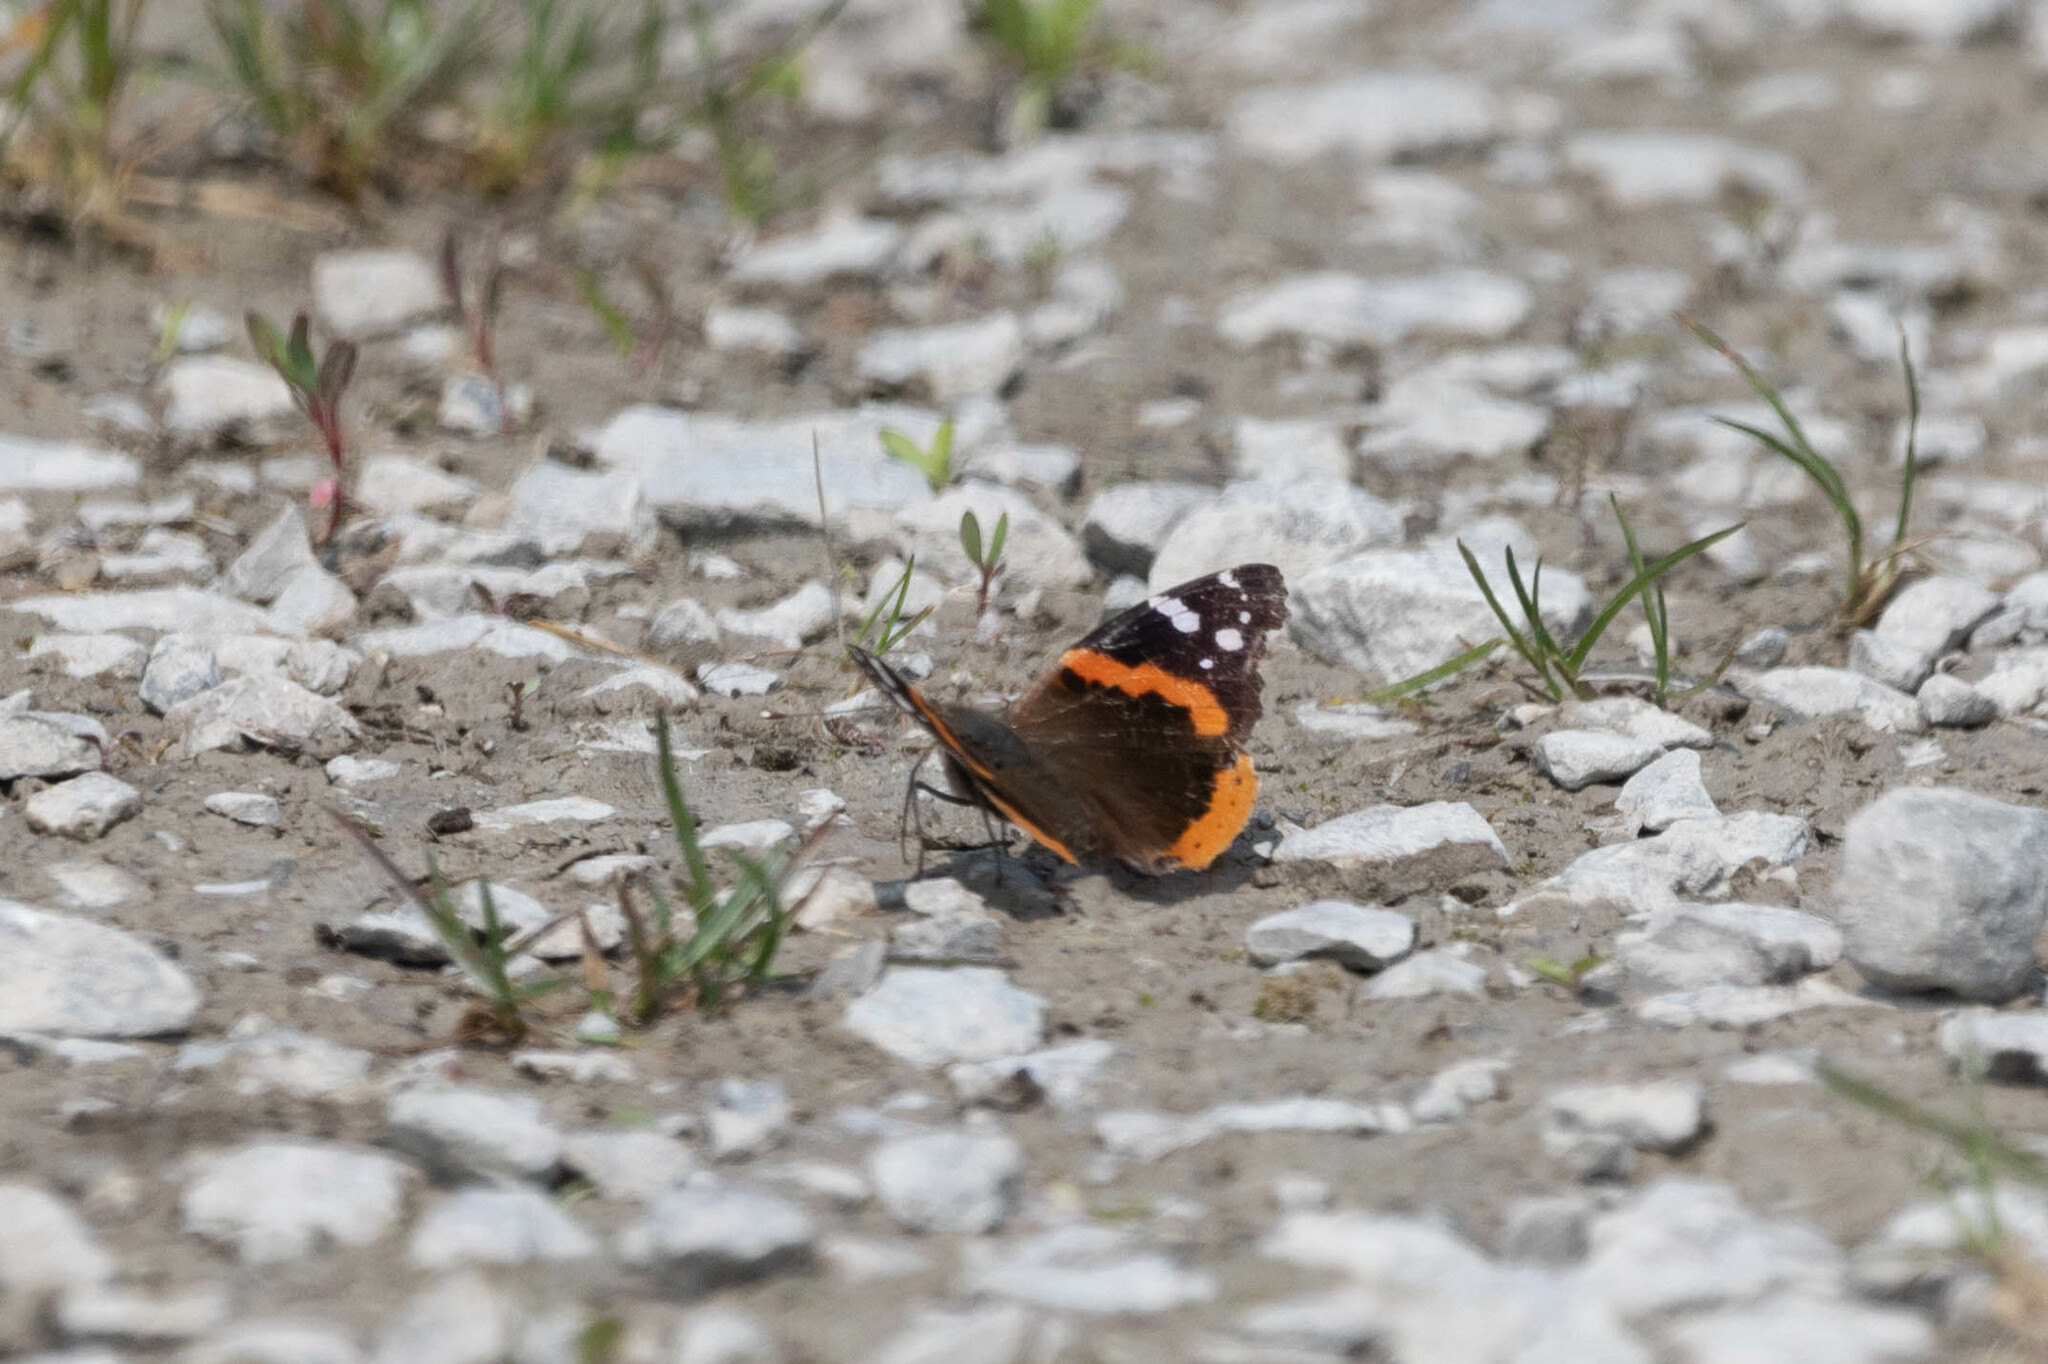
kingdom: Animalia
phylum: Arthropoda
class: Insecta
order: Lepidoptera
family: Nymphalidae
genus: Vanessa
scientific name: Vanessa atalanta
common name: Red admiral
